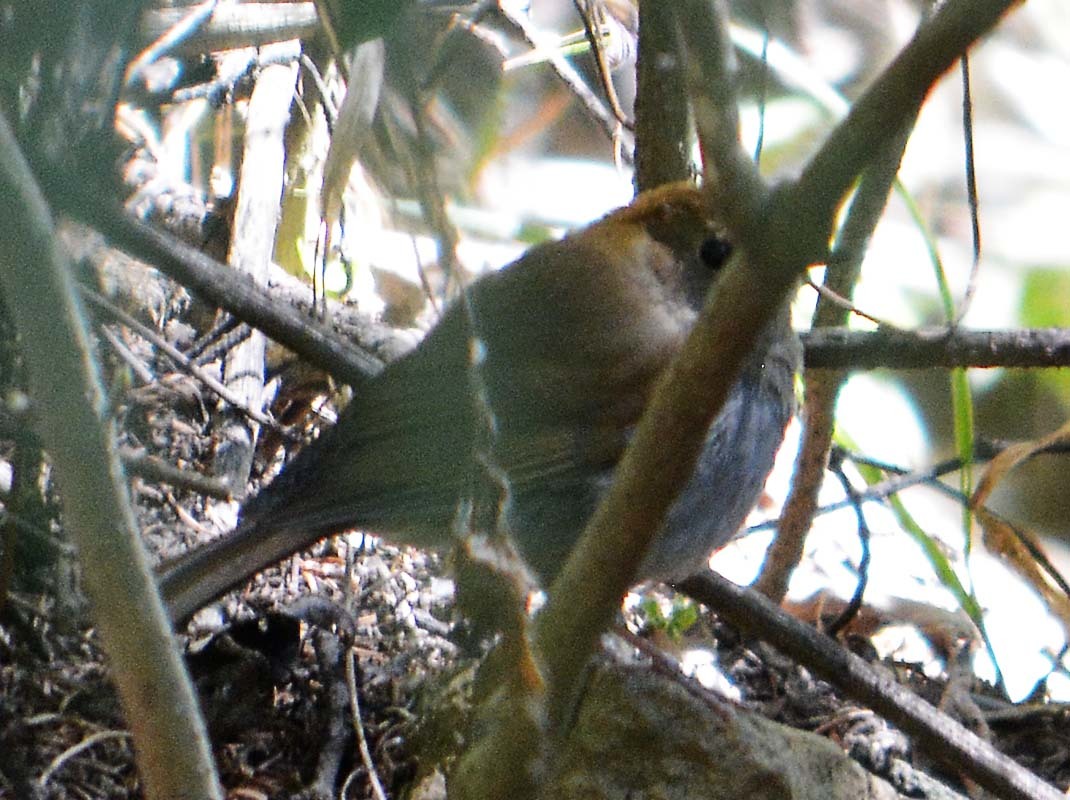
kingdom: Animalia
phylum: Chordata
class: Aves
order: Passeriformes
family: Turdidae
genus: Catharus
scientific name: Catharus occidentalis
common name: Russet nightingale-thrush
